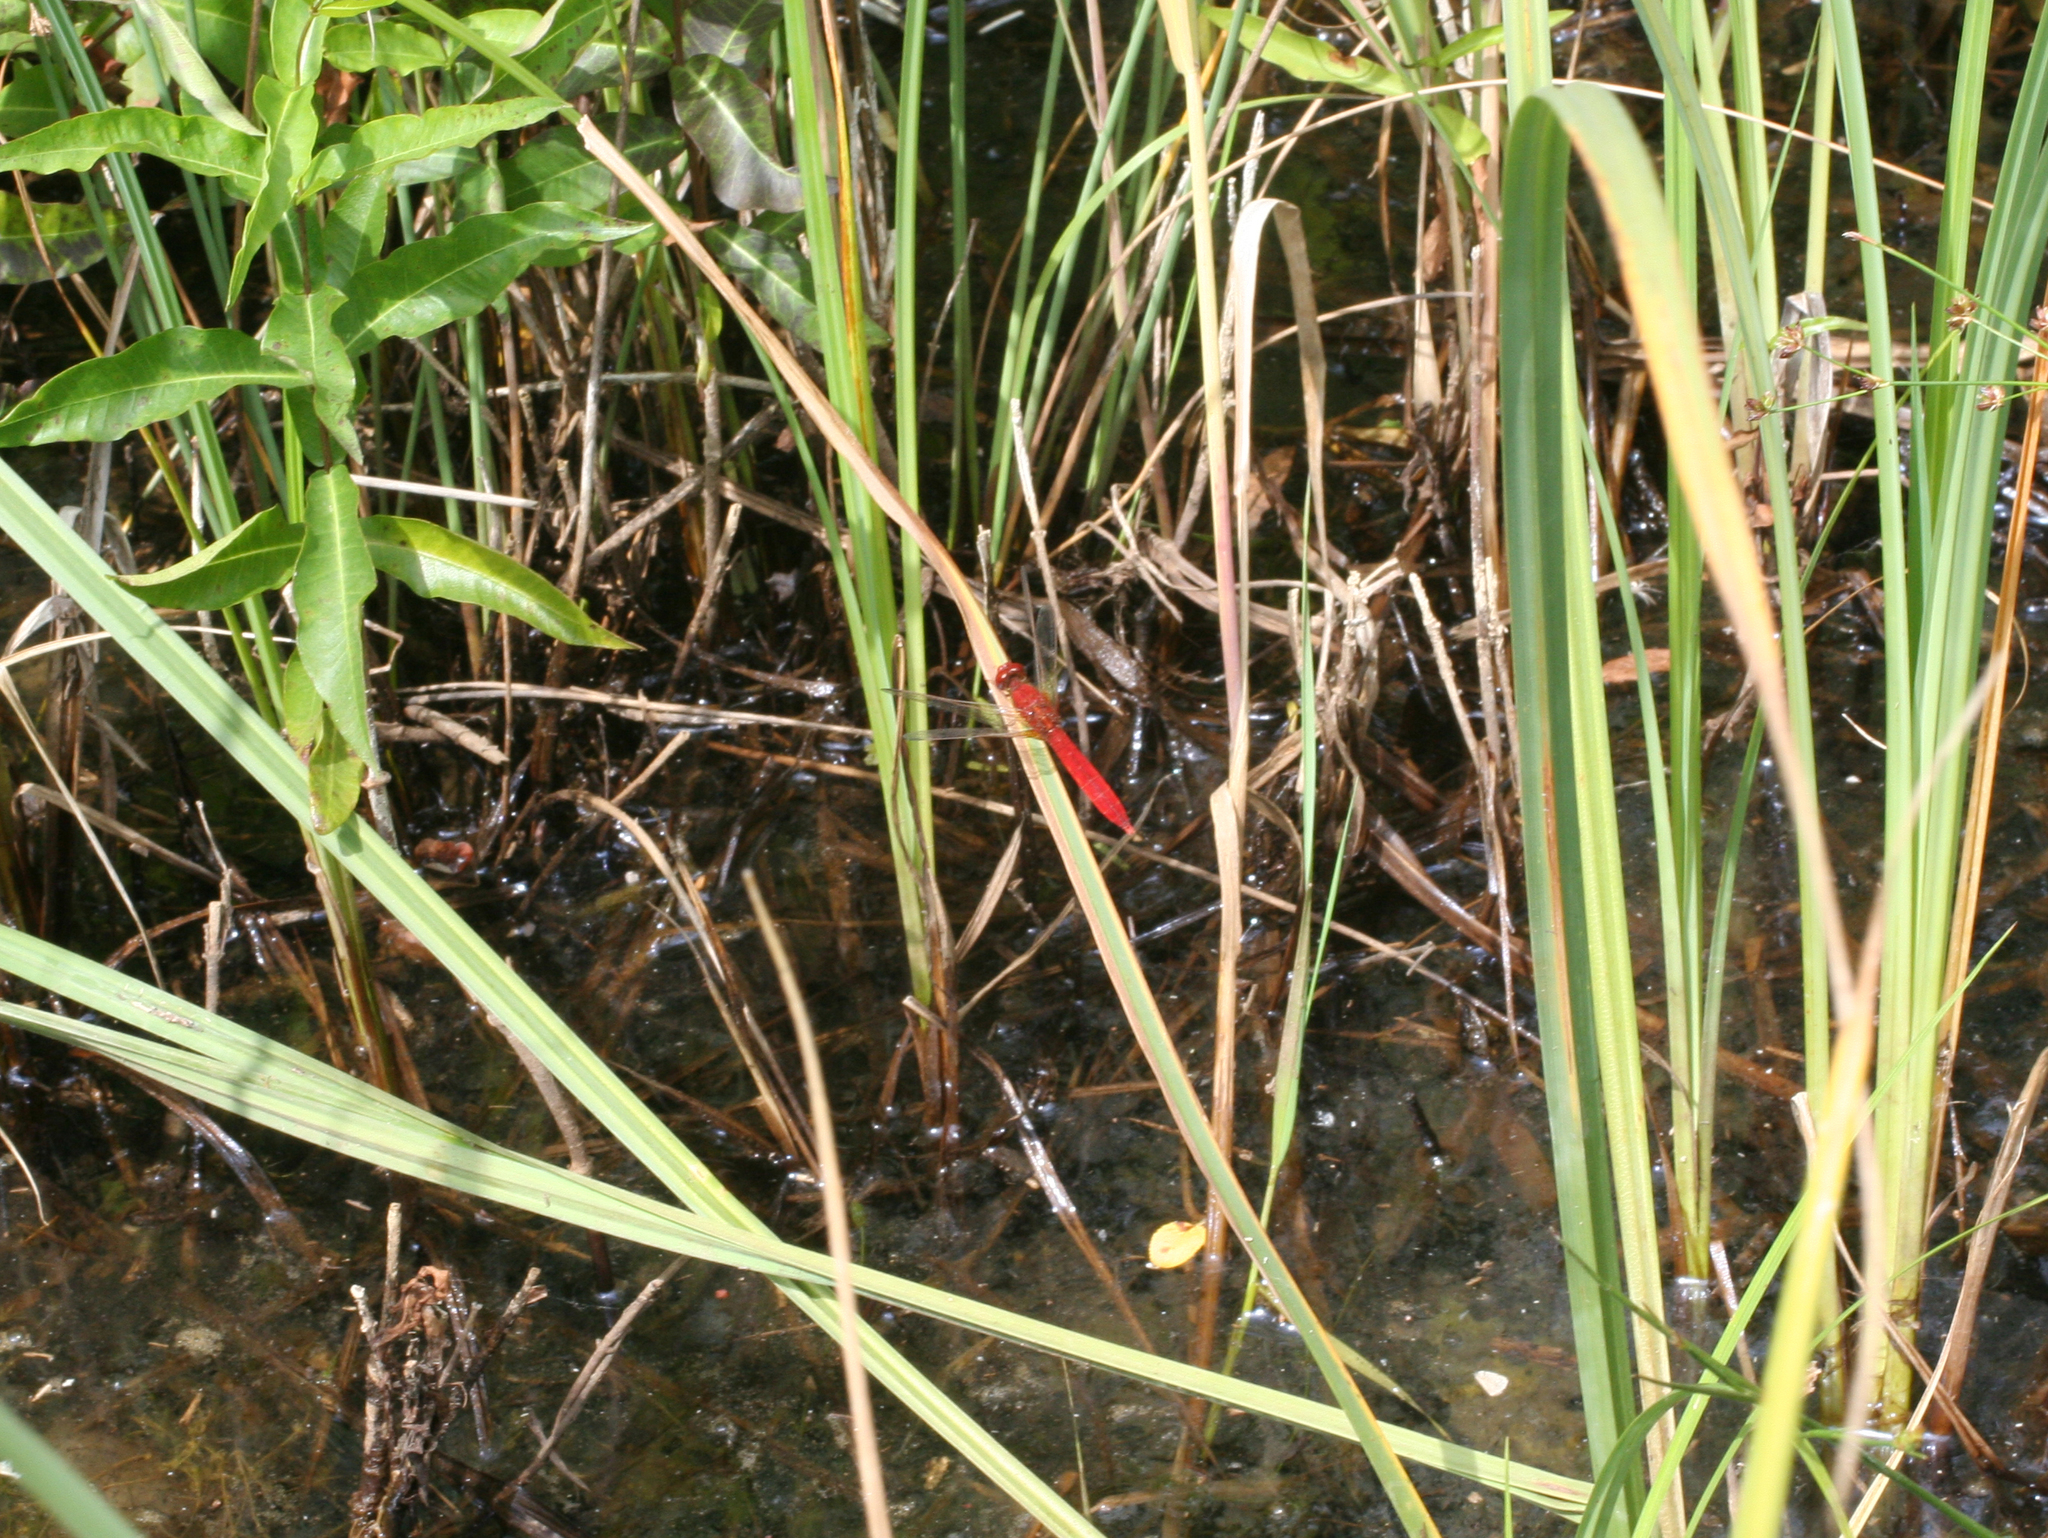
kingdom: Animalia
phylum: Arthropoda
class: Insecta
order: Odonata
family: Libellulidae
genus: Crocothemis
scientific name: Crocothemis erythraea
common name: Scarlet dragonfly
